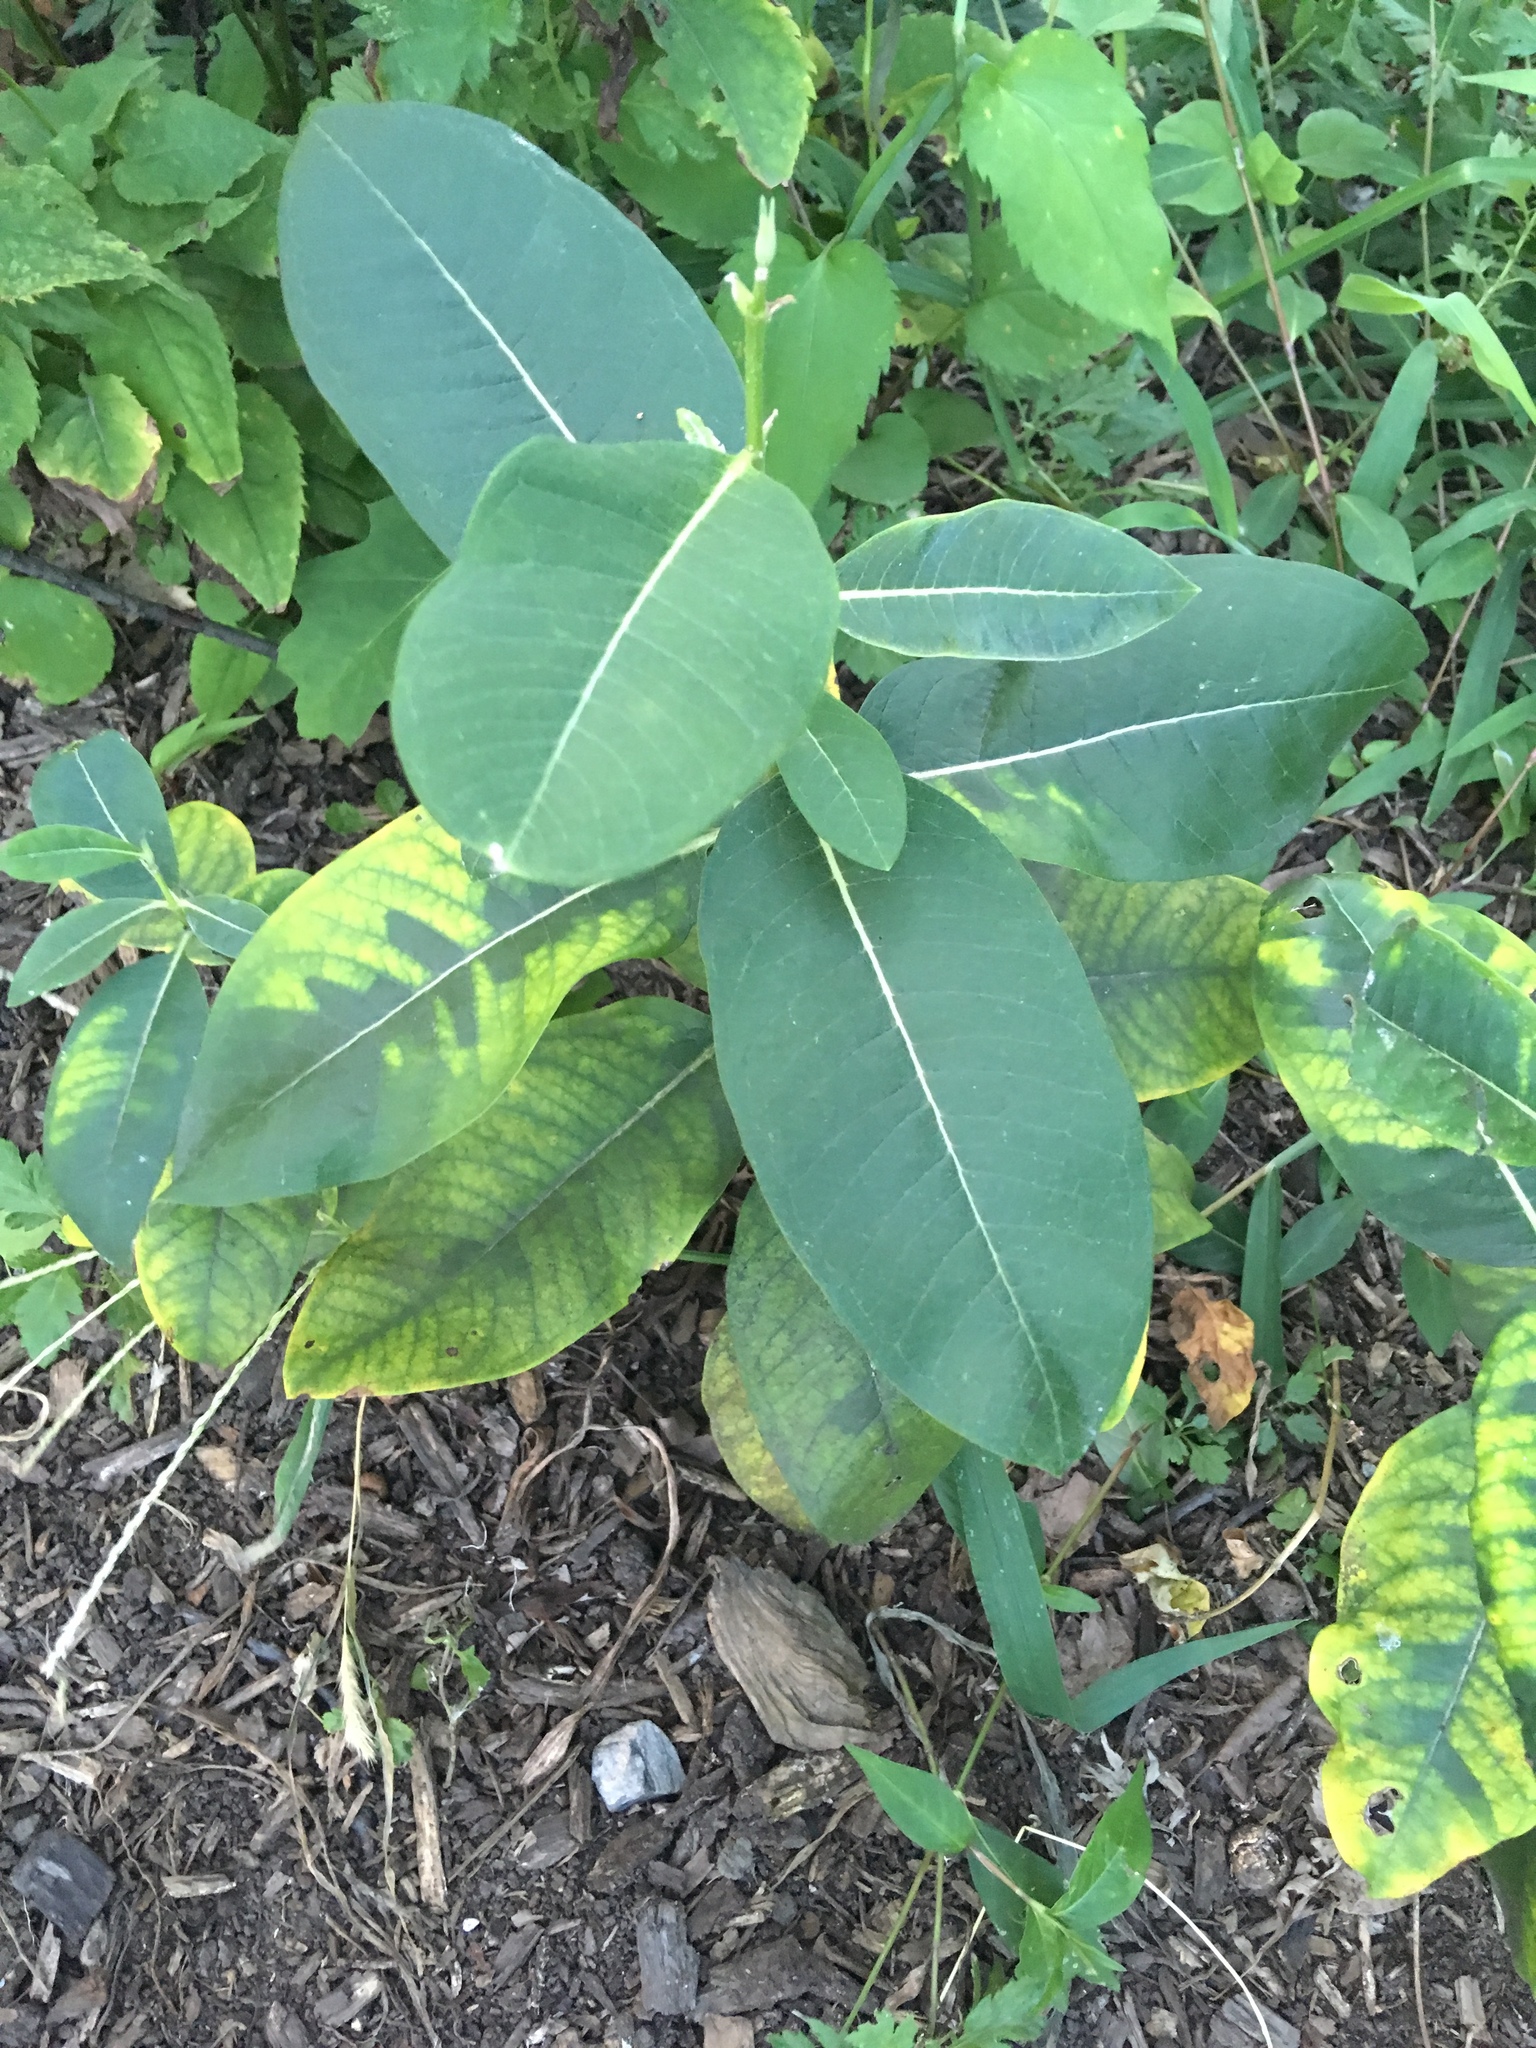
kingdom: Plantae
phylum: Tracheophyta
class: Magnoliopsida
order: Gentianales
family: Apocynaceae
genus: Asclepias
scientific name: Asclepias syriaca
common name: Common milkweed
